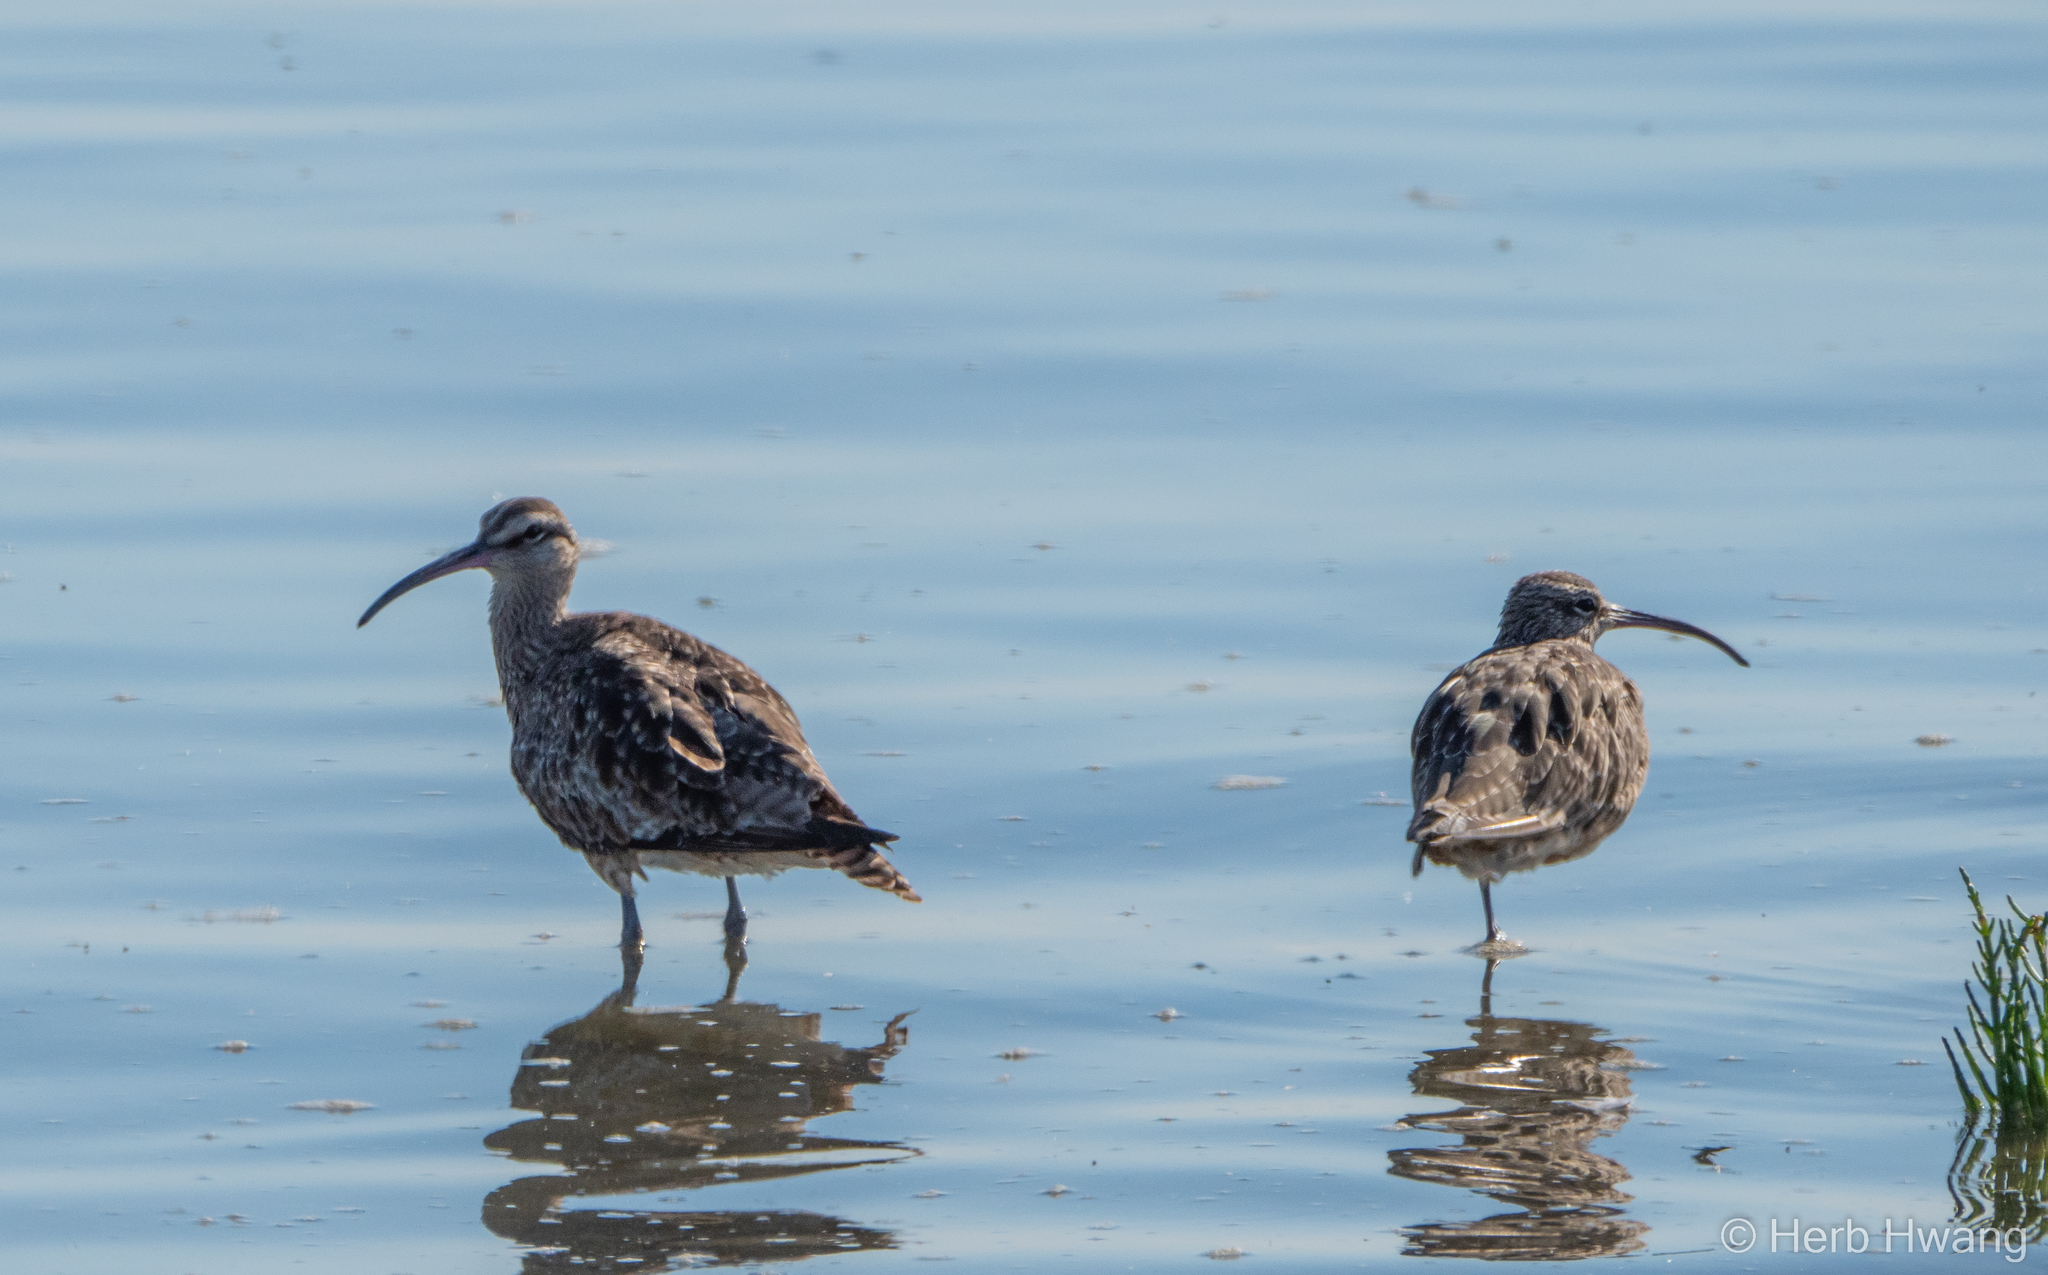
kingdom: Animalia
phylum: Chordata
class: Aves
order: Charadriiformes
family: Scolopacidae
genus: Numenius
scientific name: Numenius phaeopus
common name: Whimbrel
